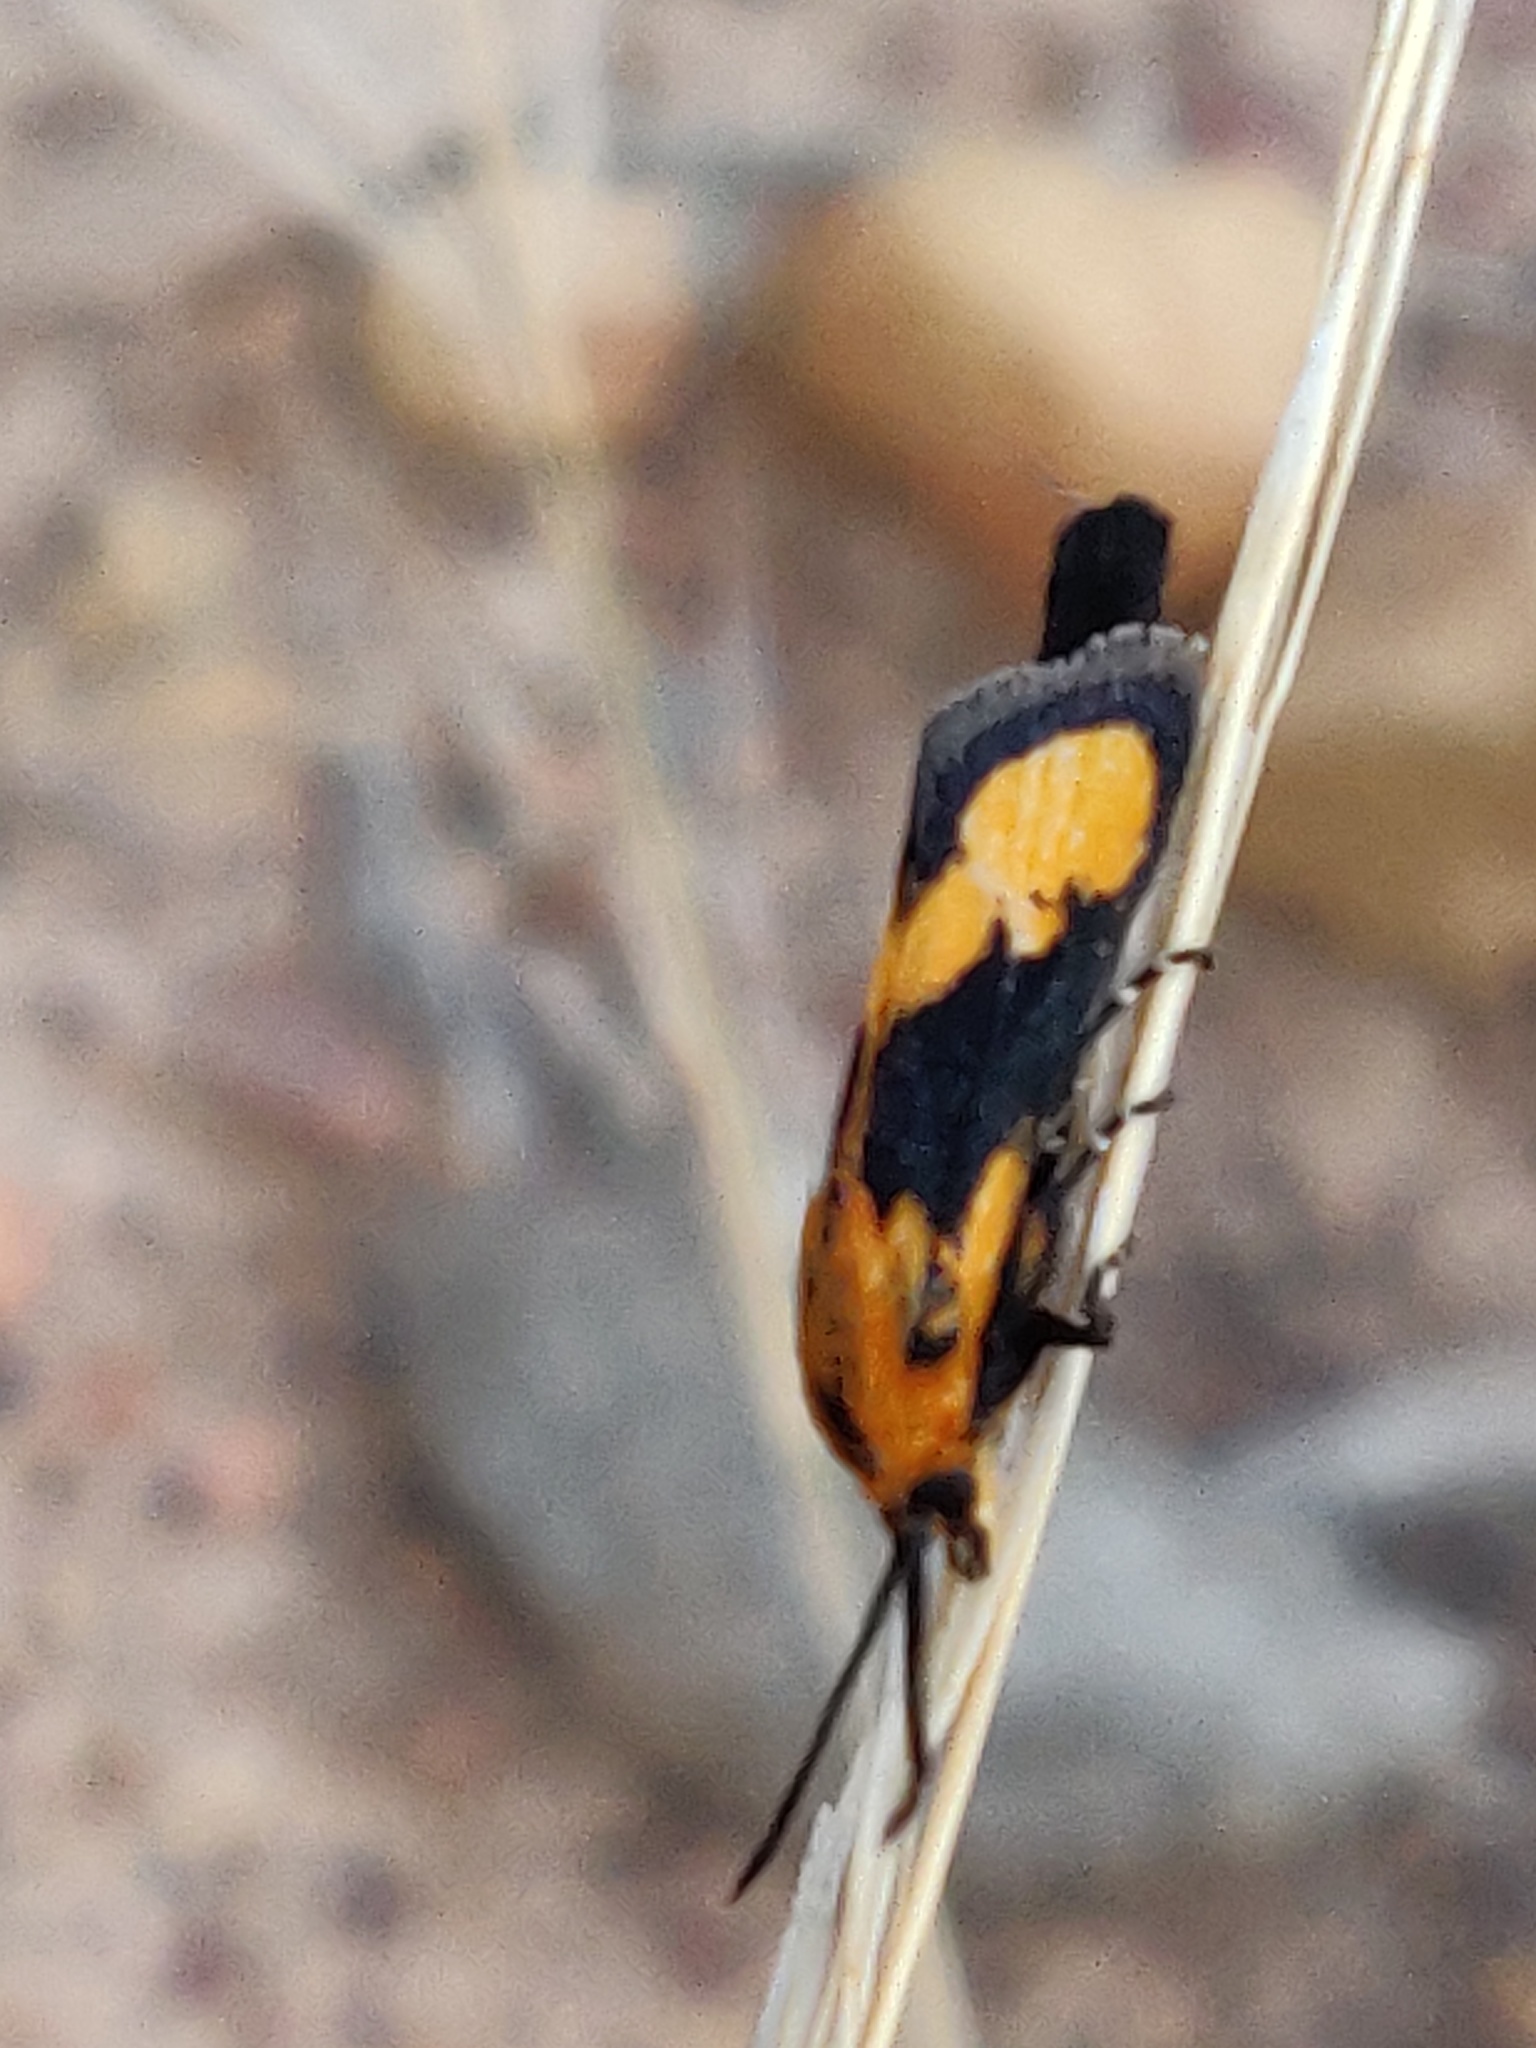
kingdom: Animalia
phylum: Arthropoda
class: Insecta
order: Lepidoptera
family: Brachodidae
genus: Miscera
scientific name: Miscera homotona
